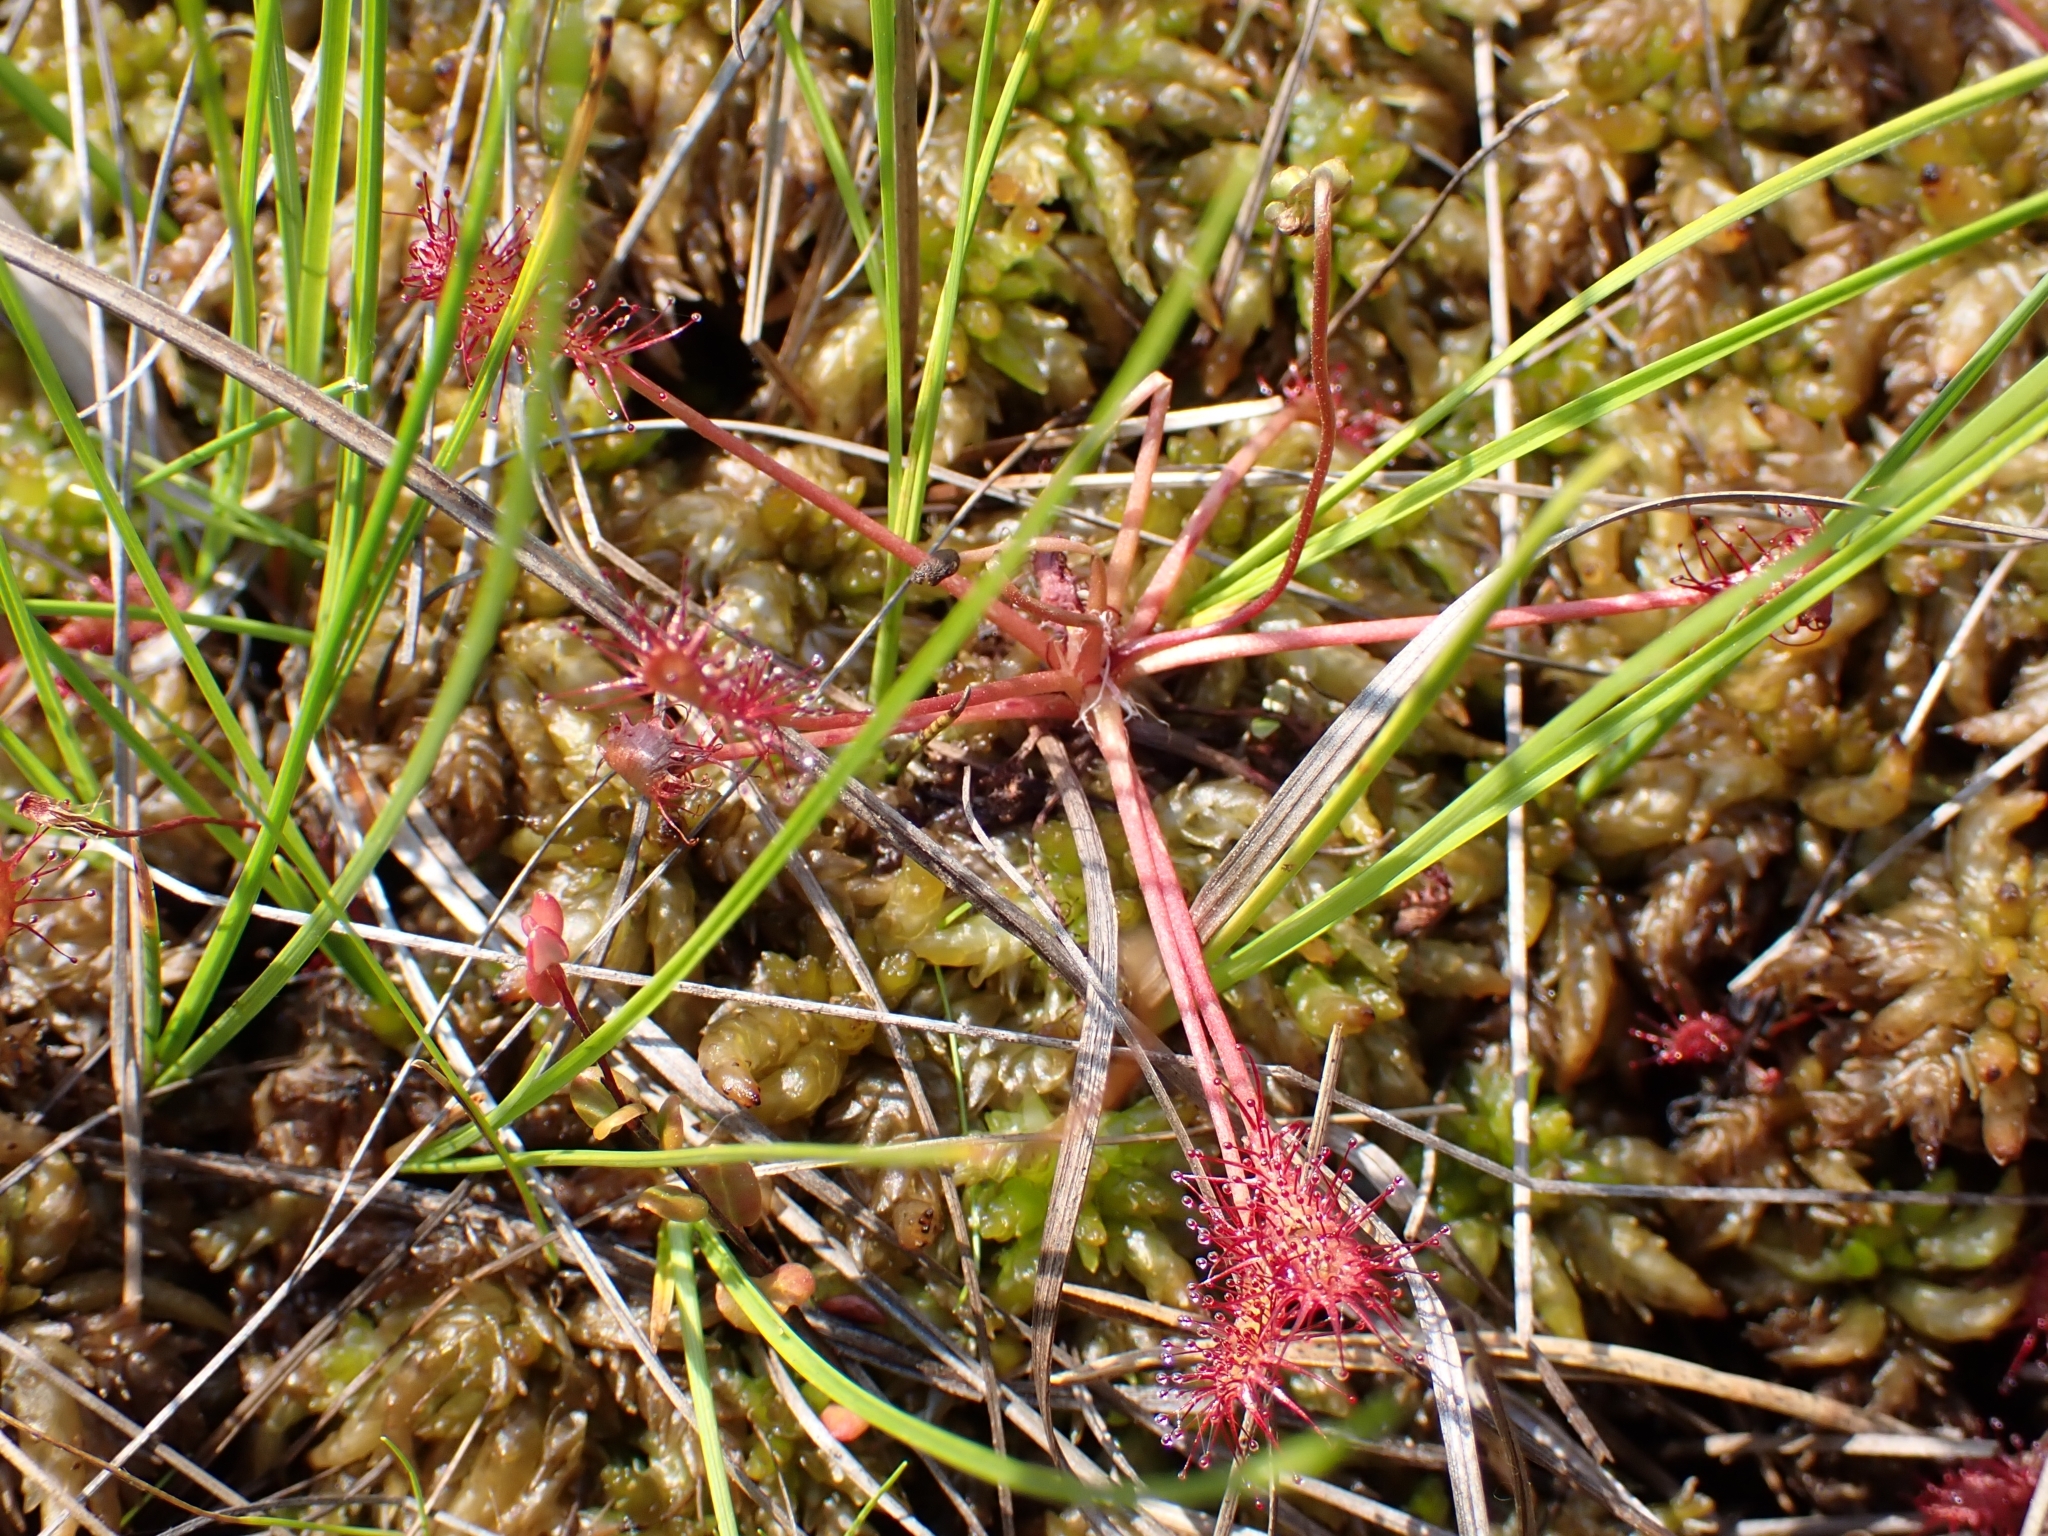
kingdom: Plantae
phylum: Tracheophyta
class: Magnoliopsida
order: Caryophyllales
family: Droseraceae
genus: Drosera
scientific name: Drosera intermedia
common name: Oblong-leaved sundew
